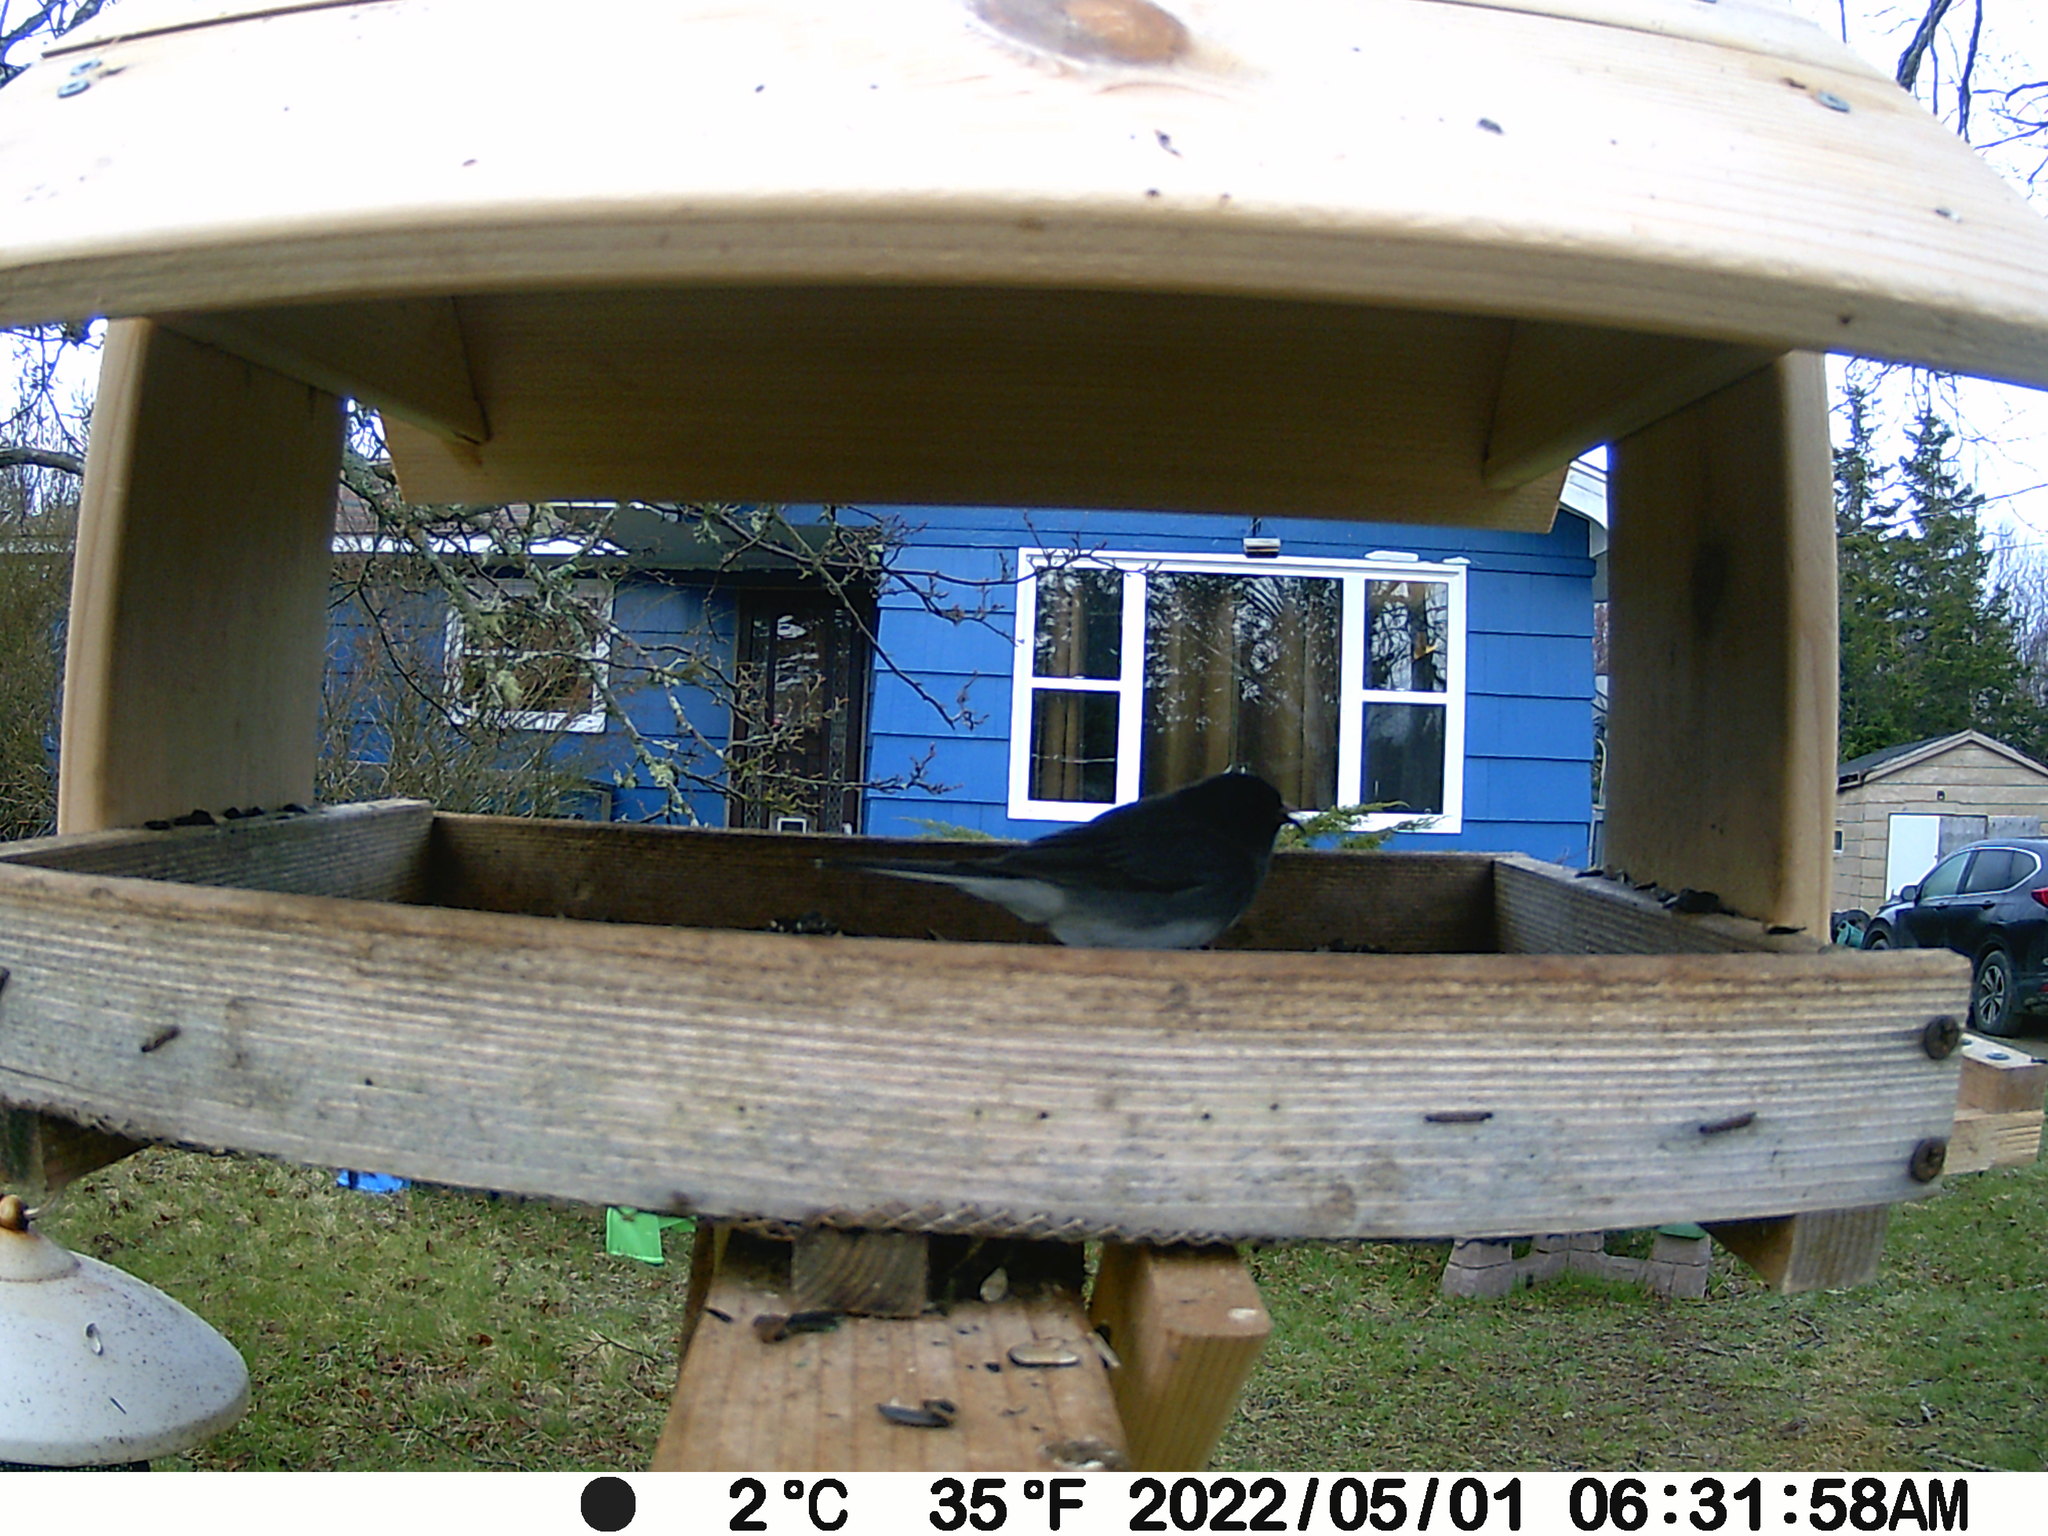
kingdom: Animalia
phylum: Chordata
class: Aves
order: Passeriformes
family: Passerellidae
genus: Junco
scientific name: Junco hyemalis
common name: Dark-eyed junco
